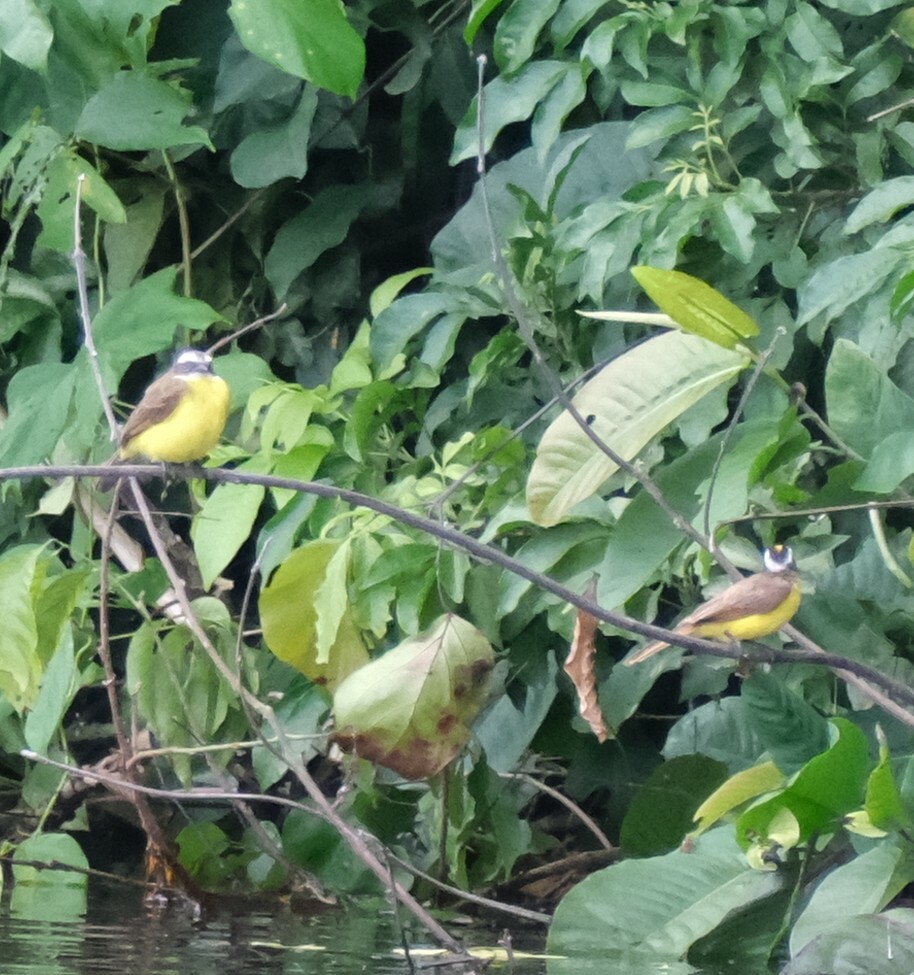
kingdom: Animalia
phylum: Chordata
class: Aves
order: Passeriformes
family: Tyrannidae
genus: Pitangus
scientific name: Pitangus lictor
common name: Lesser kiskadee
